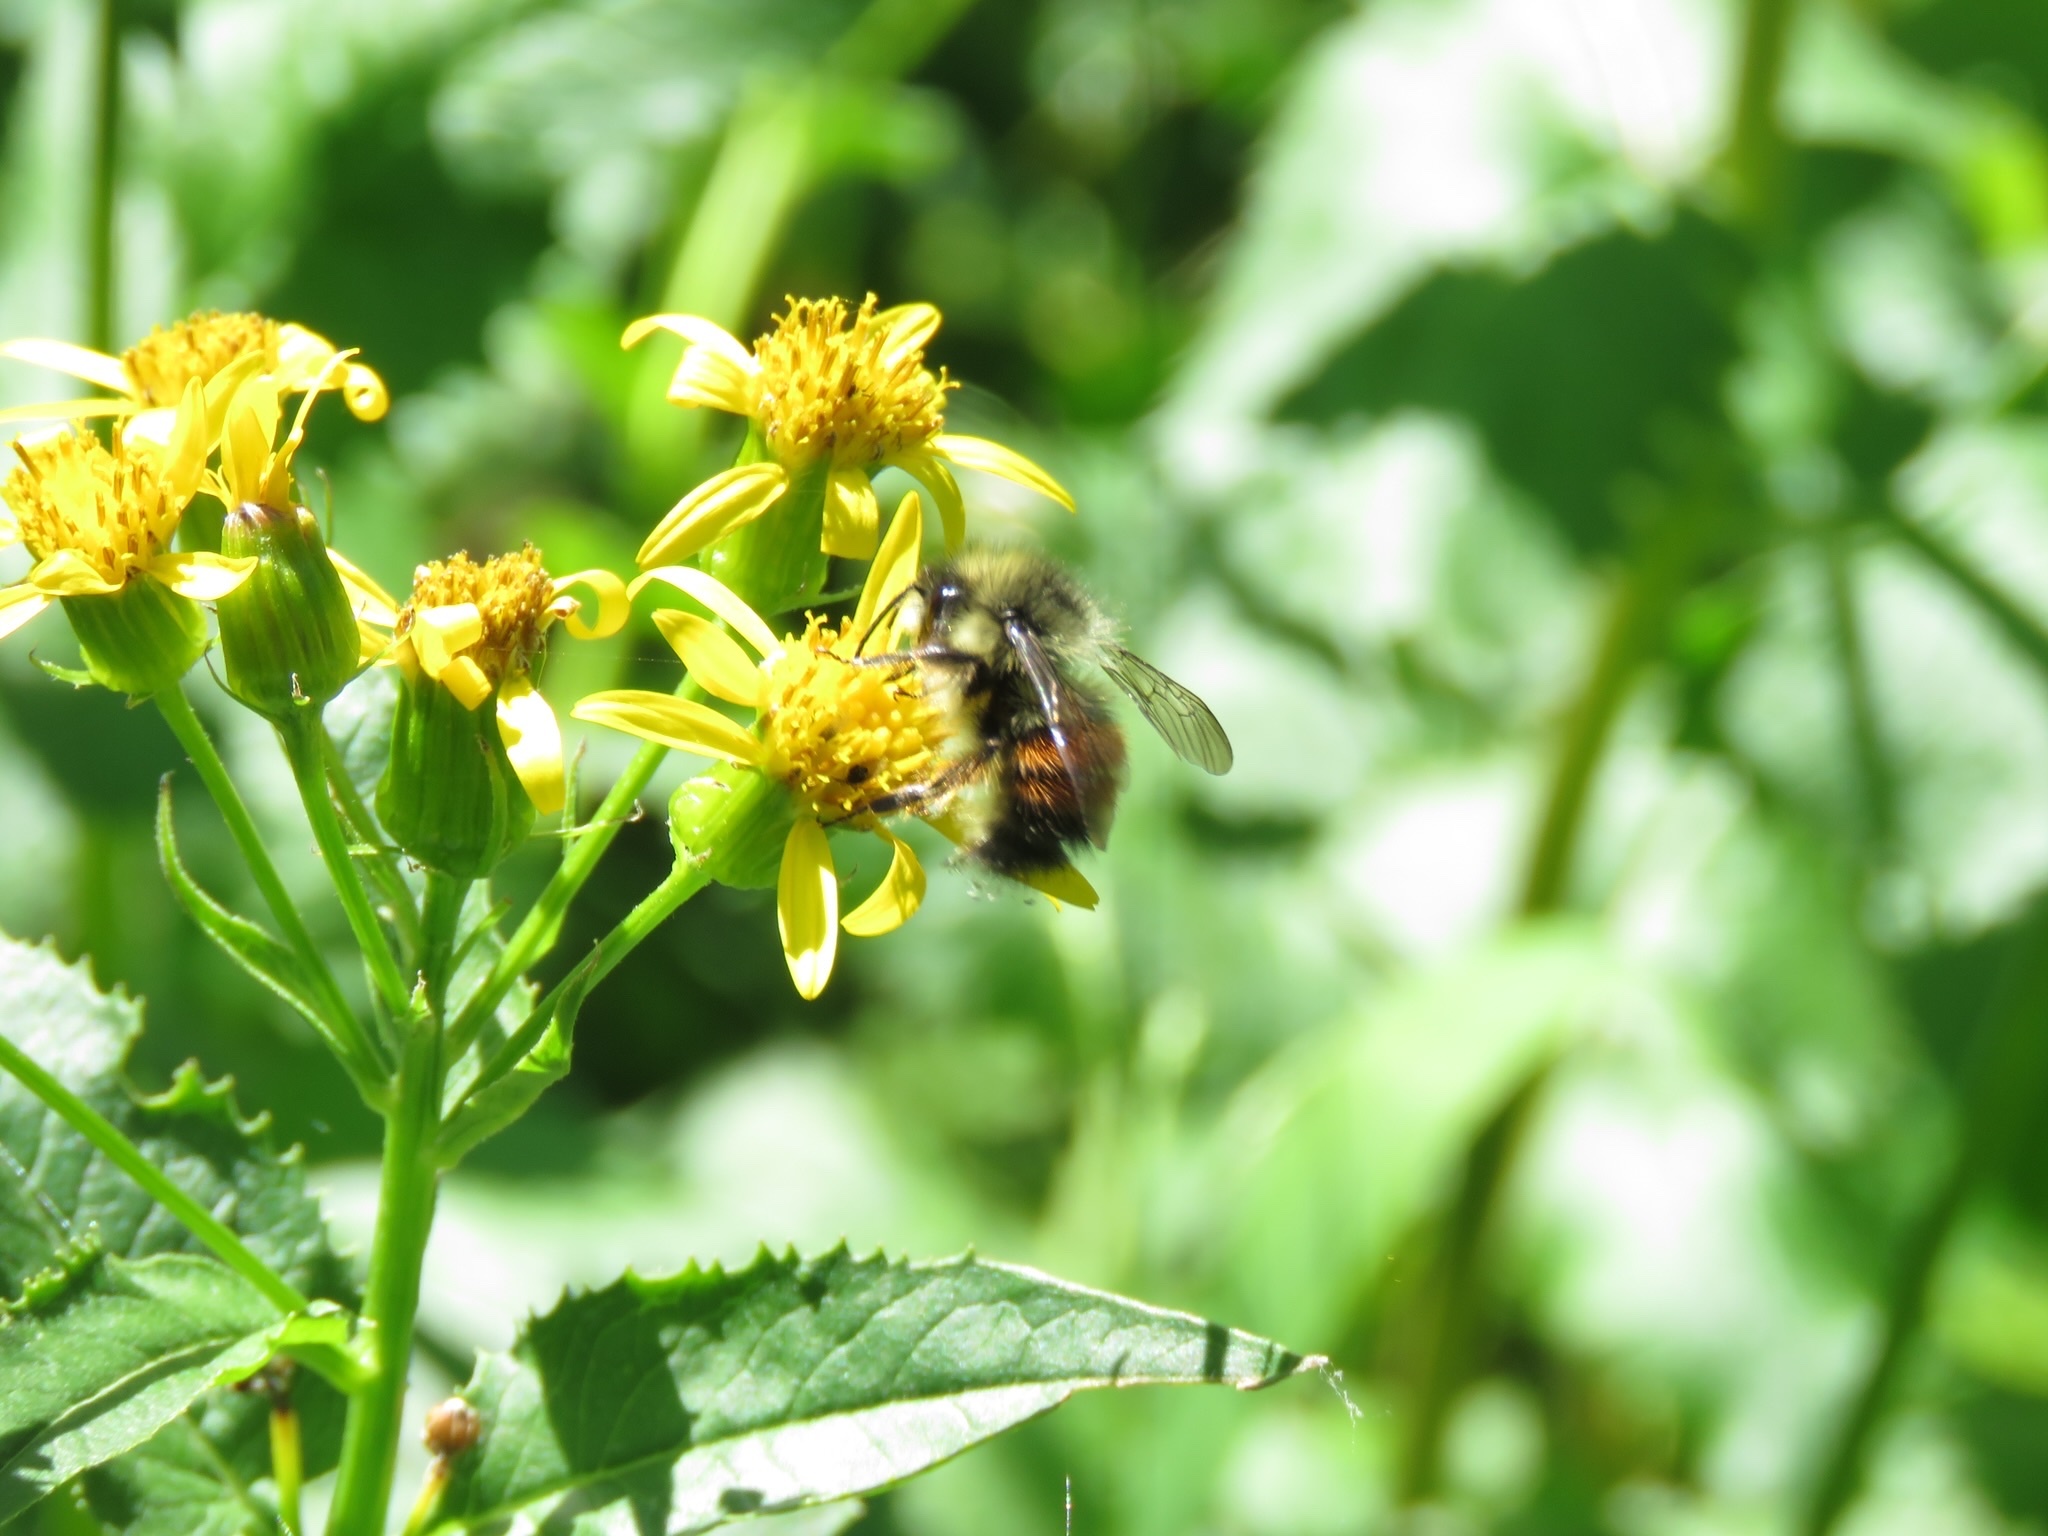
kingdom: Animalia
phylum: Arthropoda
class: Insecta
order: Hymenoptera
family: Apidae
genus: Bombus
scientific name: Bombus melanopygus
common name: Black tail bumble bee
